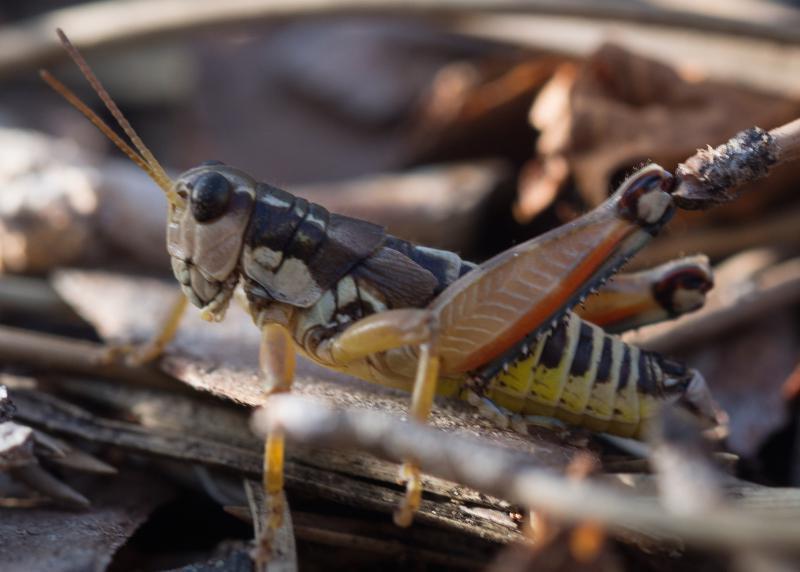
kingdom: Animalia
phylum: Arthropoda
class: Insecta
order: Orthoptera
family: Acrididae
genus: Podisma
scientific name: Podisma pedestris
